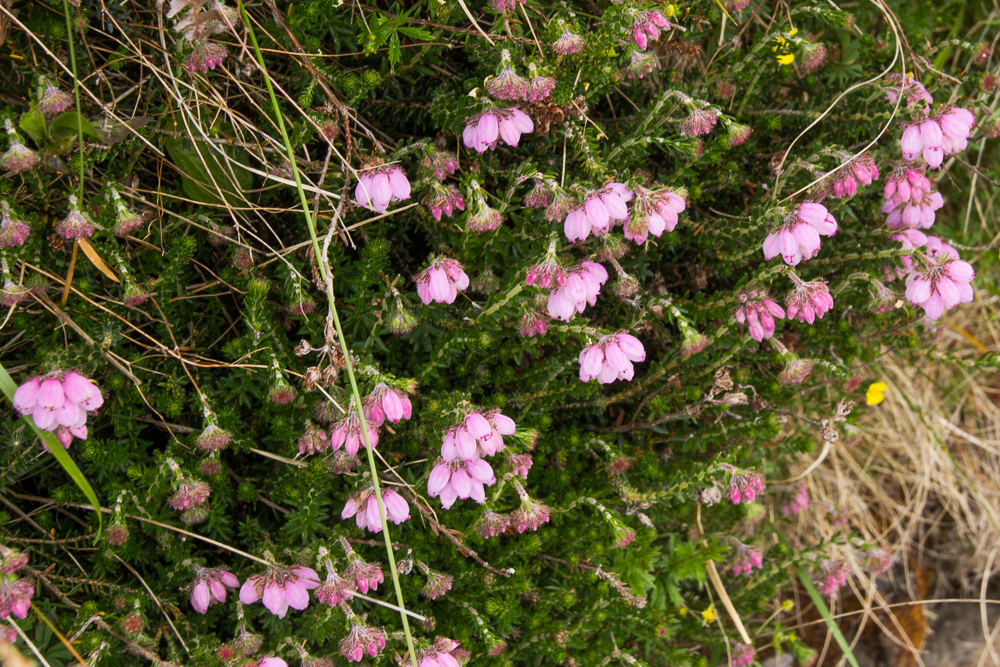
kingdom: Plantae
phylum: Tracheophyta
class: Magnoliopsida
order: Ericales
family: Ericaceae
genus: Erica
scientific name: Erica tetralix
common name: Cross-leaved heath
